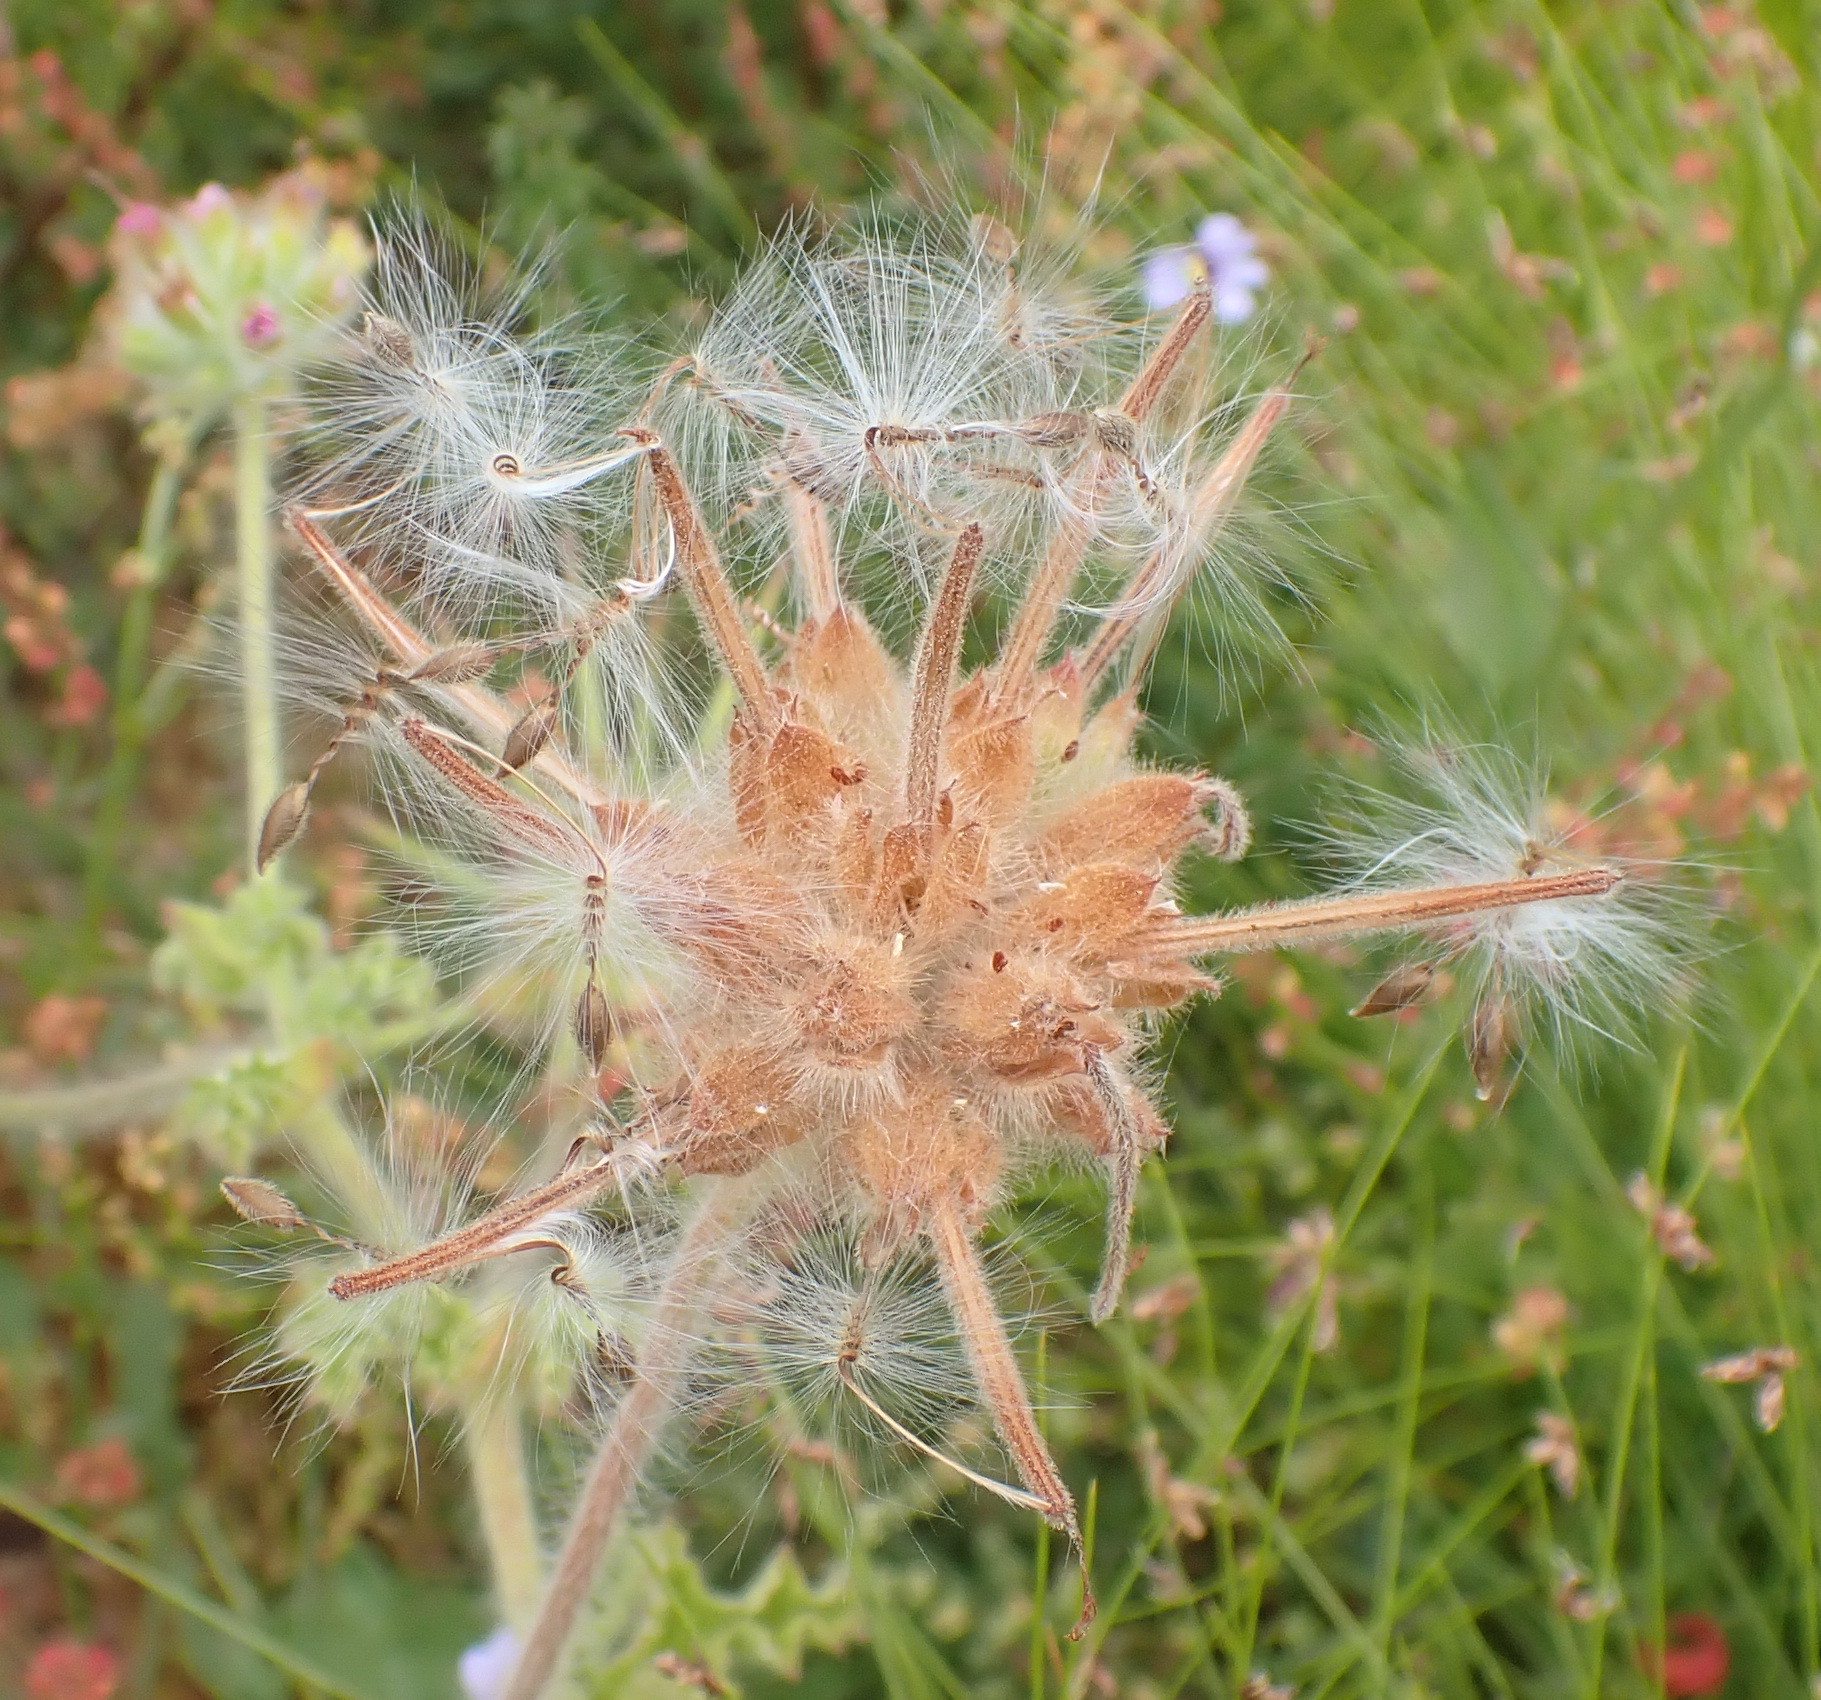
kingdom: Plantae
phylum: Tracheophyta
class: Magnoliopsida
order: Geraniales
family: Geraniaceae
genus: Pelargonium
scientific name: Pelargonium capitatum
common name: Rose scented geranium
